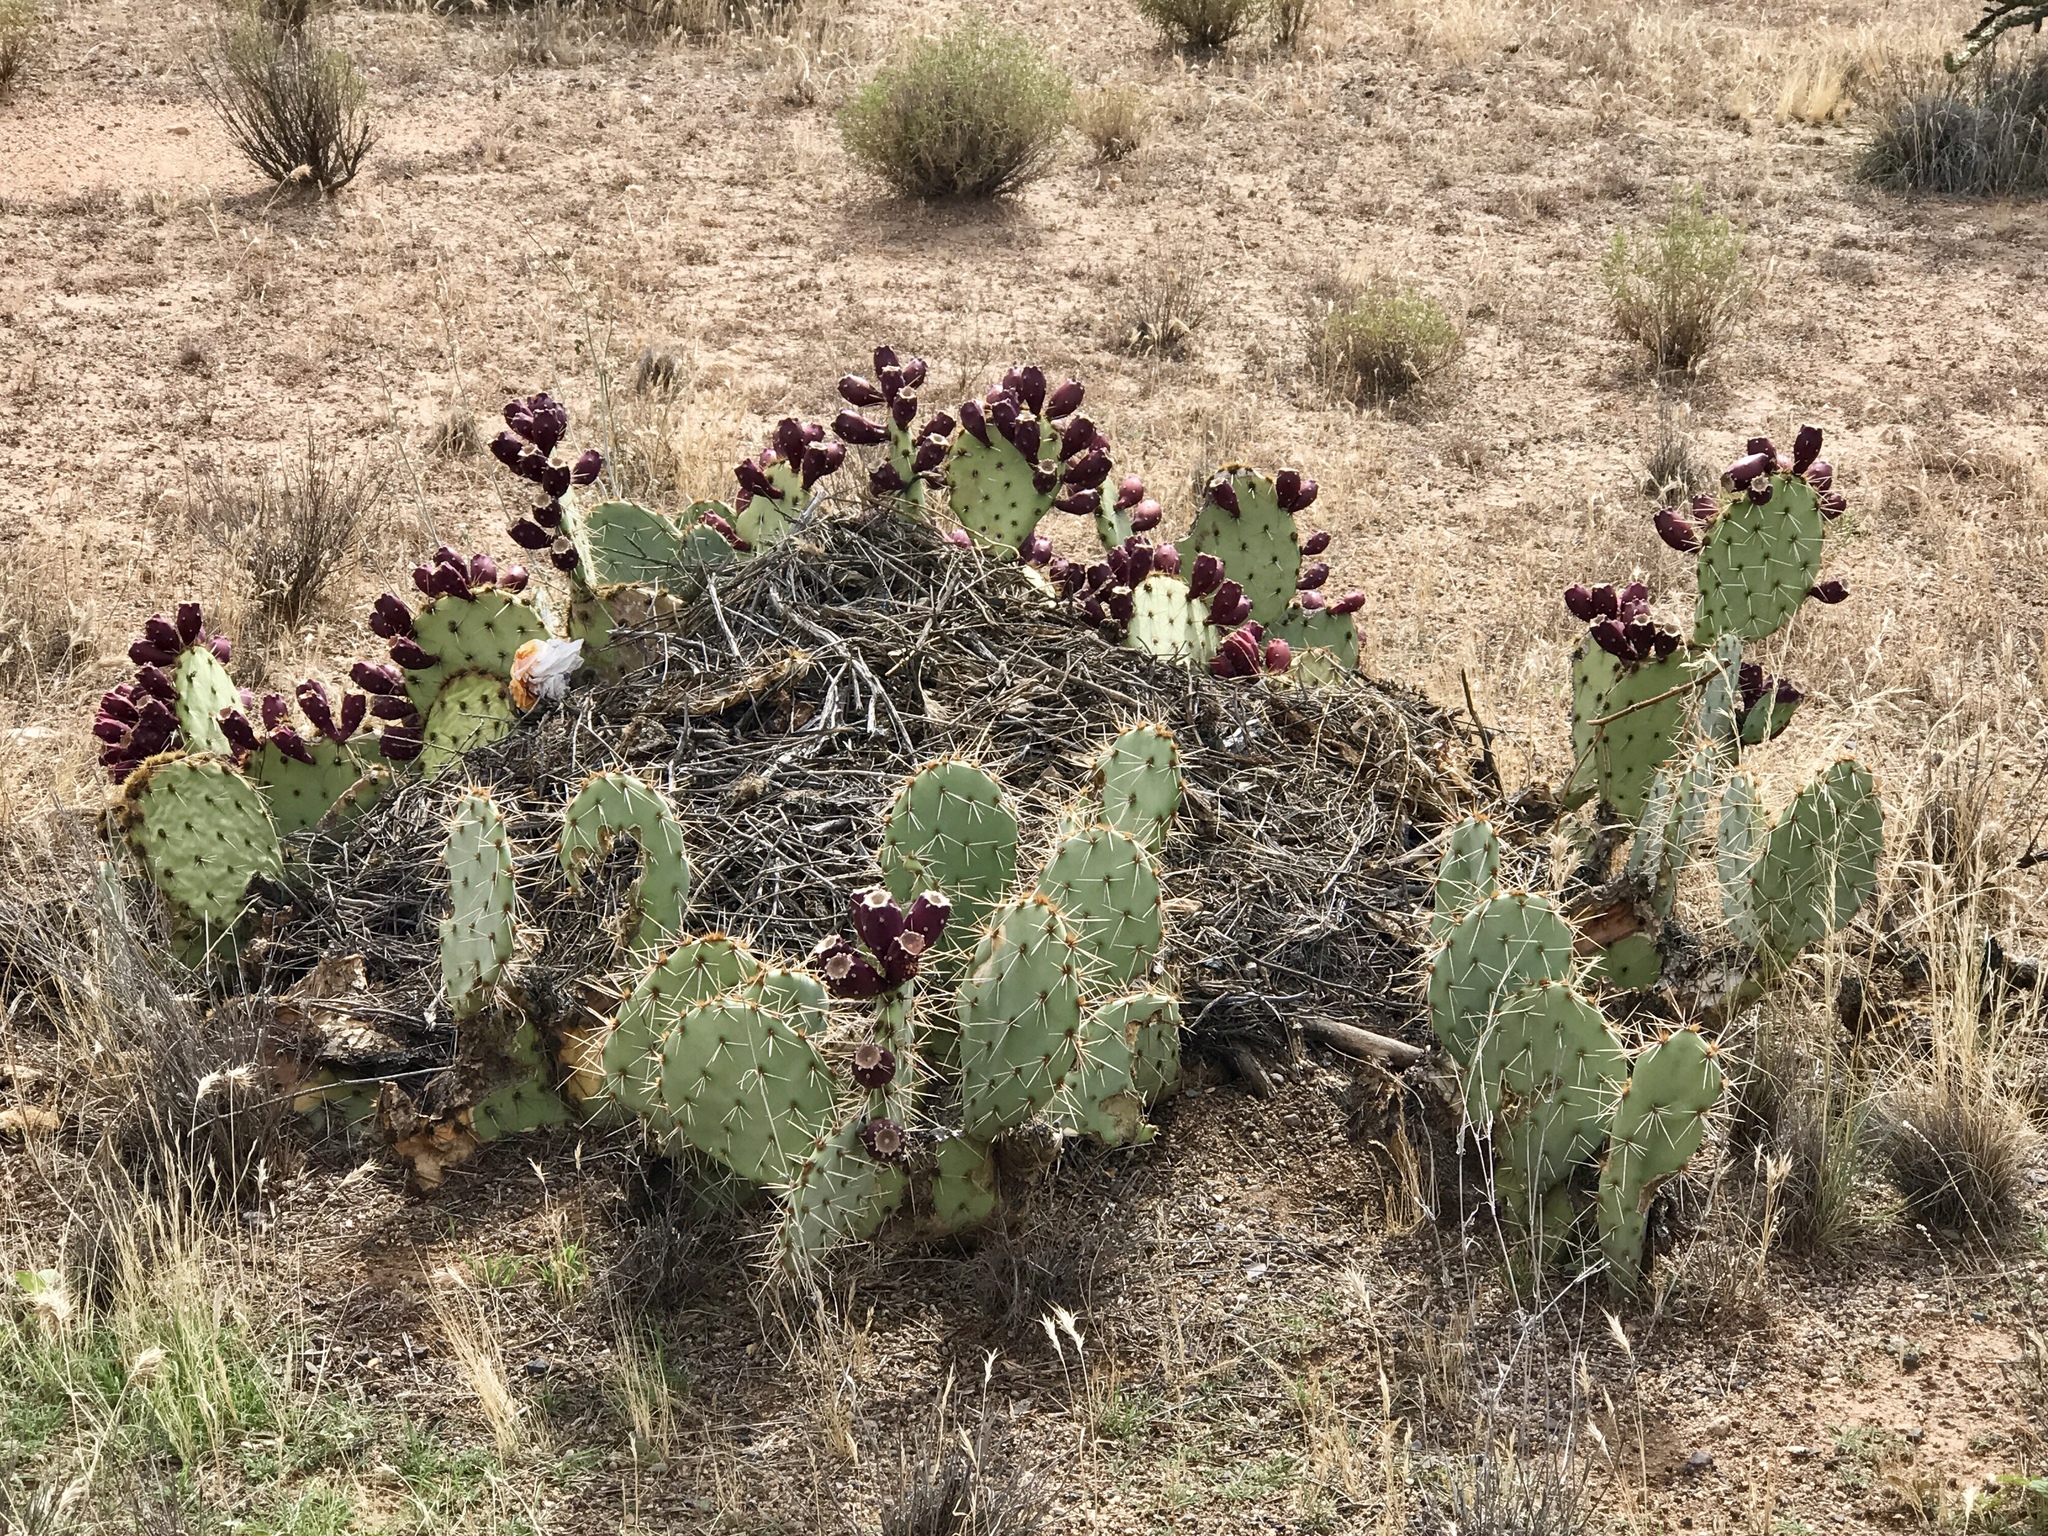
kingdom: Plantae
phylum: Tracheophyta
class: Magnoliopsida
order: Caryophyllales
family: Cactaceae
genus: Opuntia
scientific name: Opuntia engelmannii
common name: Cactus-apple
